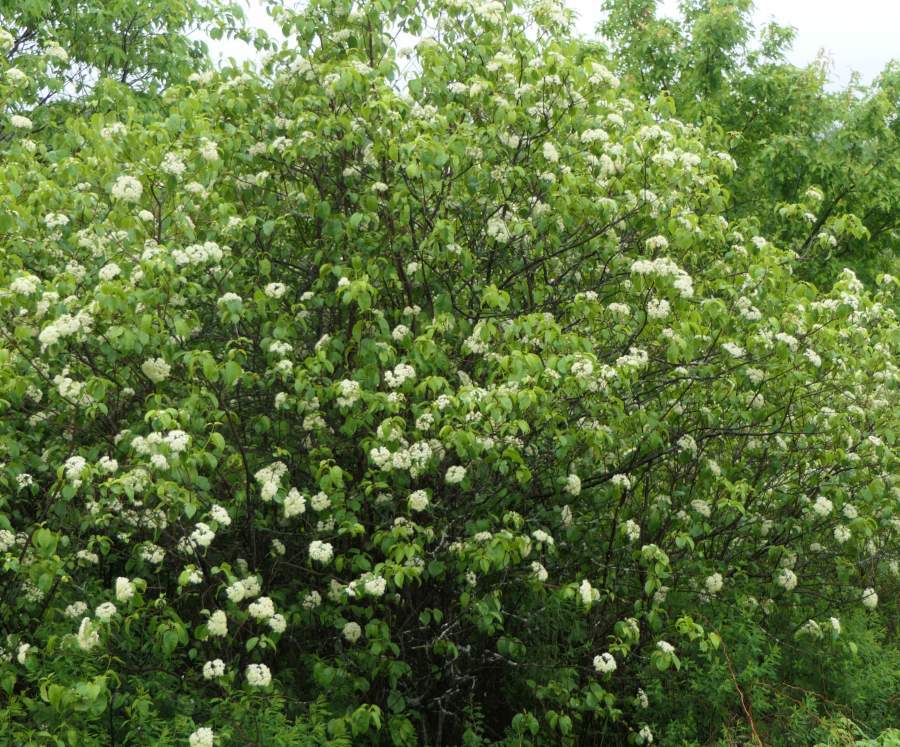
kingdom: Plantae
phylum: Tracheophyta
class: Magnoliopsida
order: Dipsacales
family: Viburnaceae
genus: Viburnum
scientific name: Viburnum lentago
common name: Black haw
